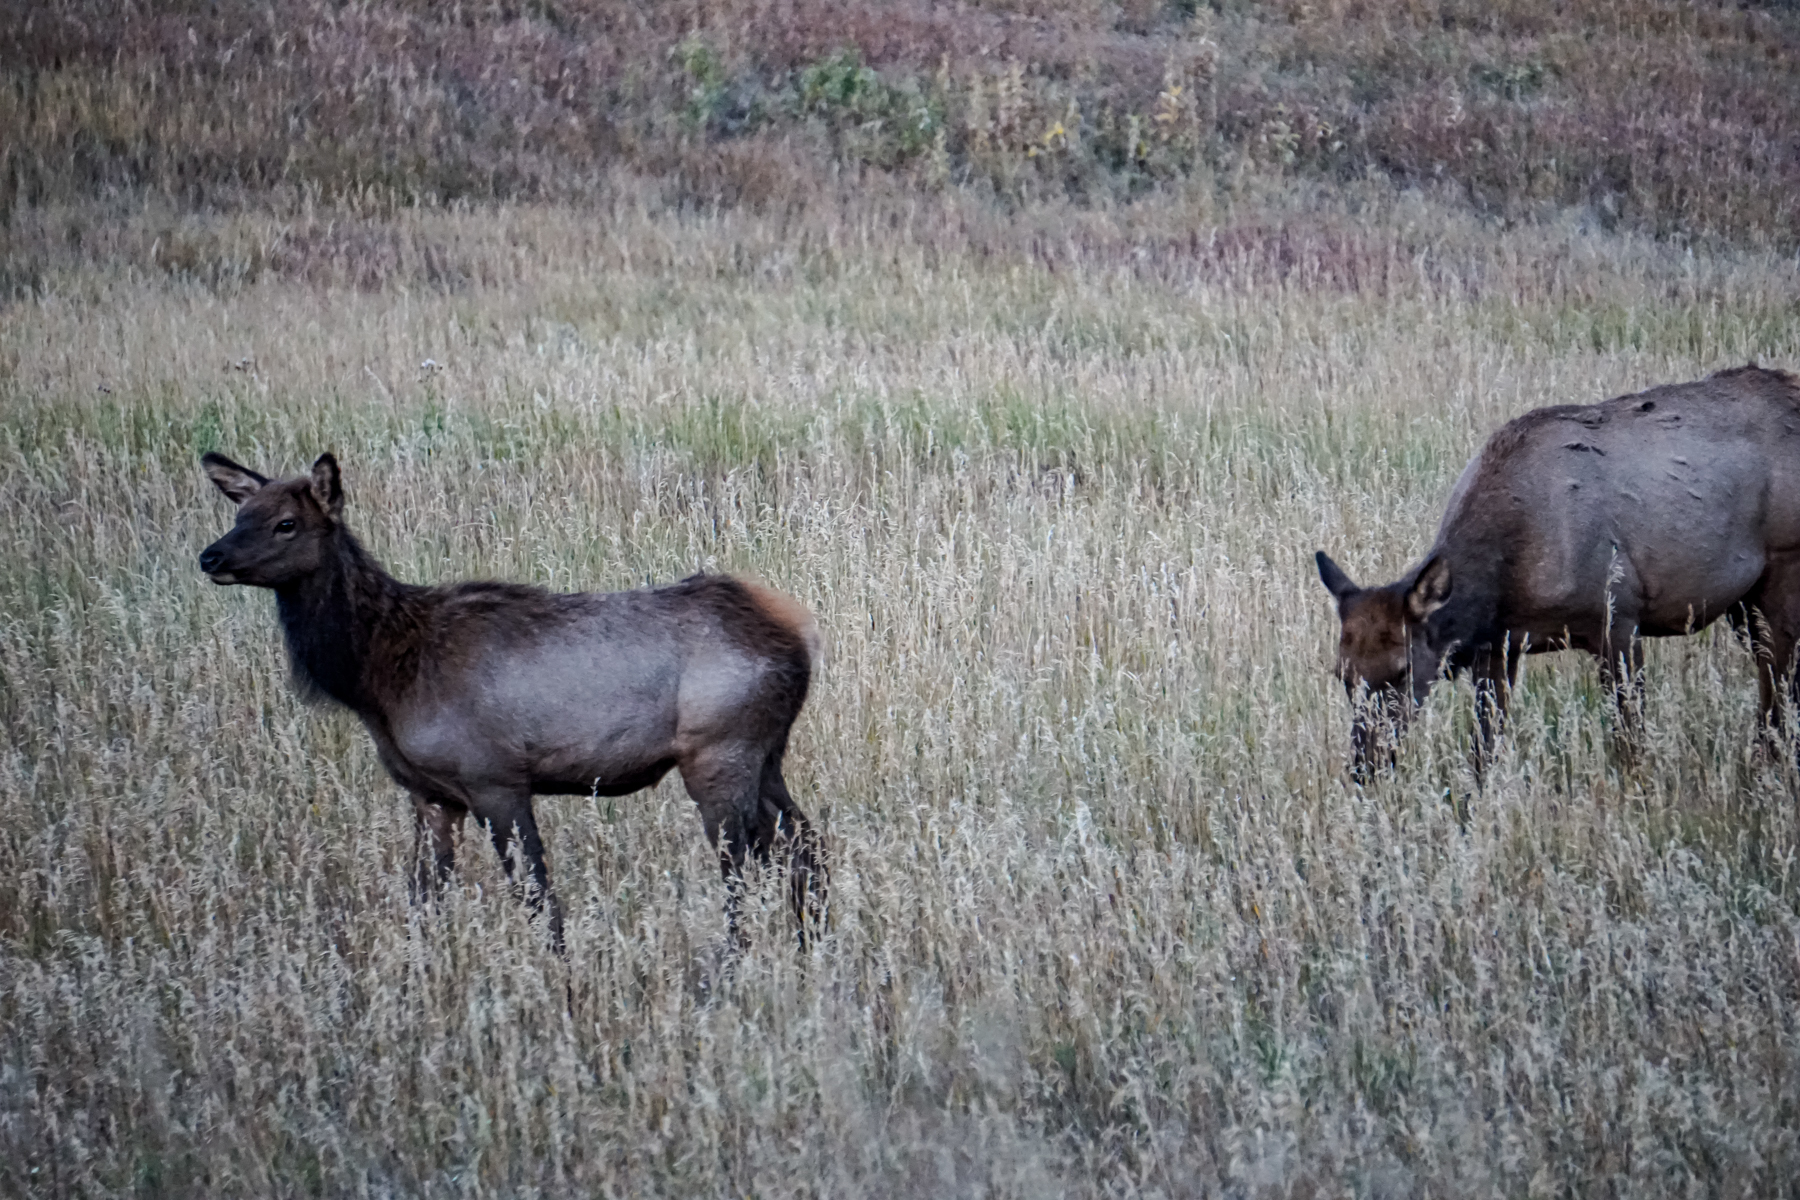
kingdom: Animalia
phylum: Chordata
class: Mammalia
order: Artiodactyla
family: Cervidae
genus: Cervus
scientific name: Cervus elaphus
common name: Red deer
